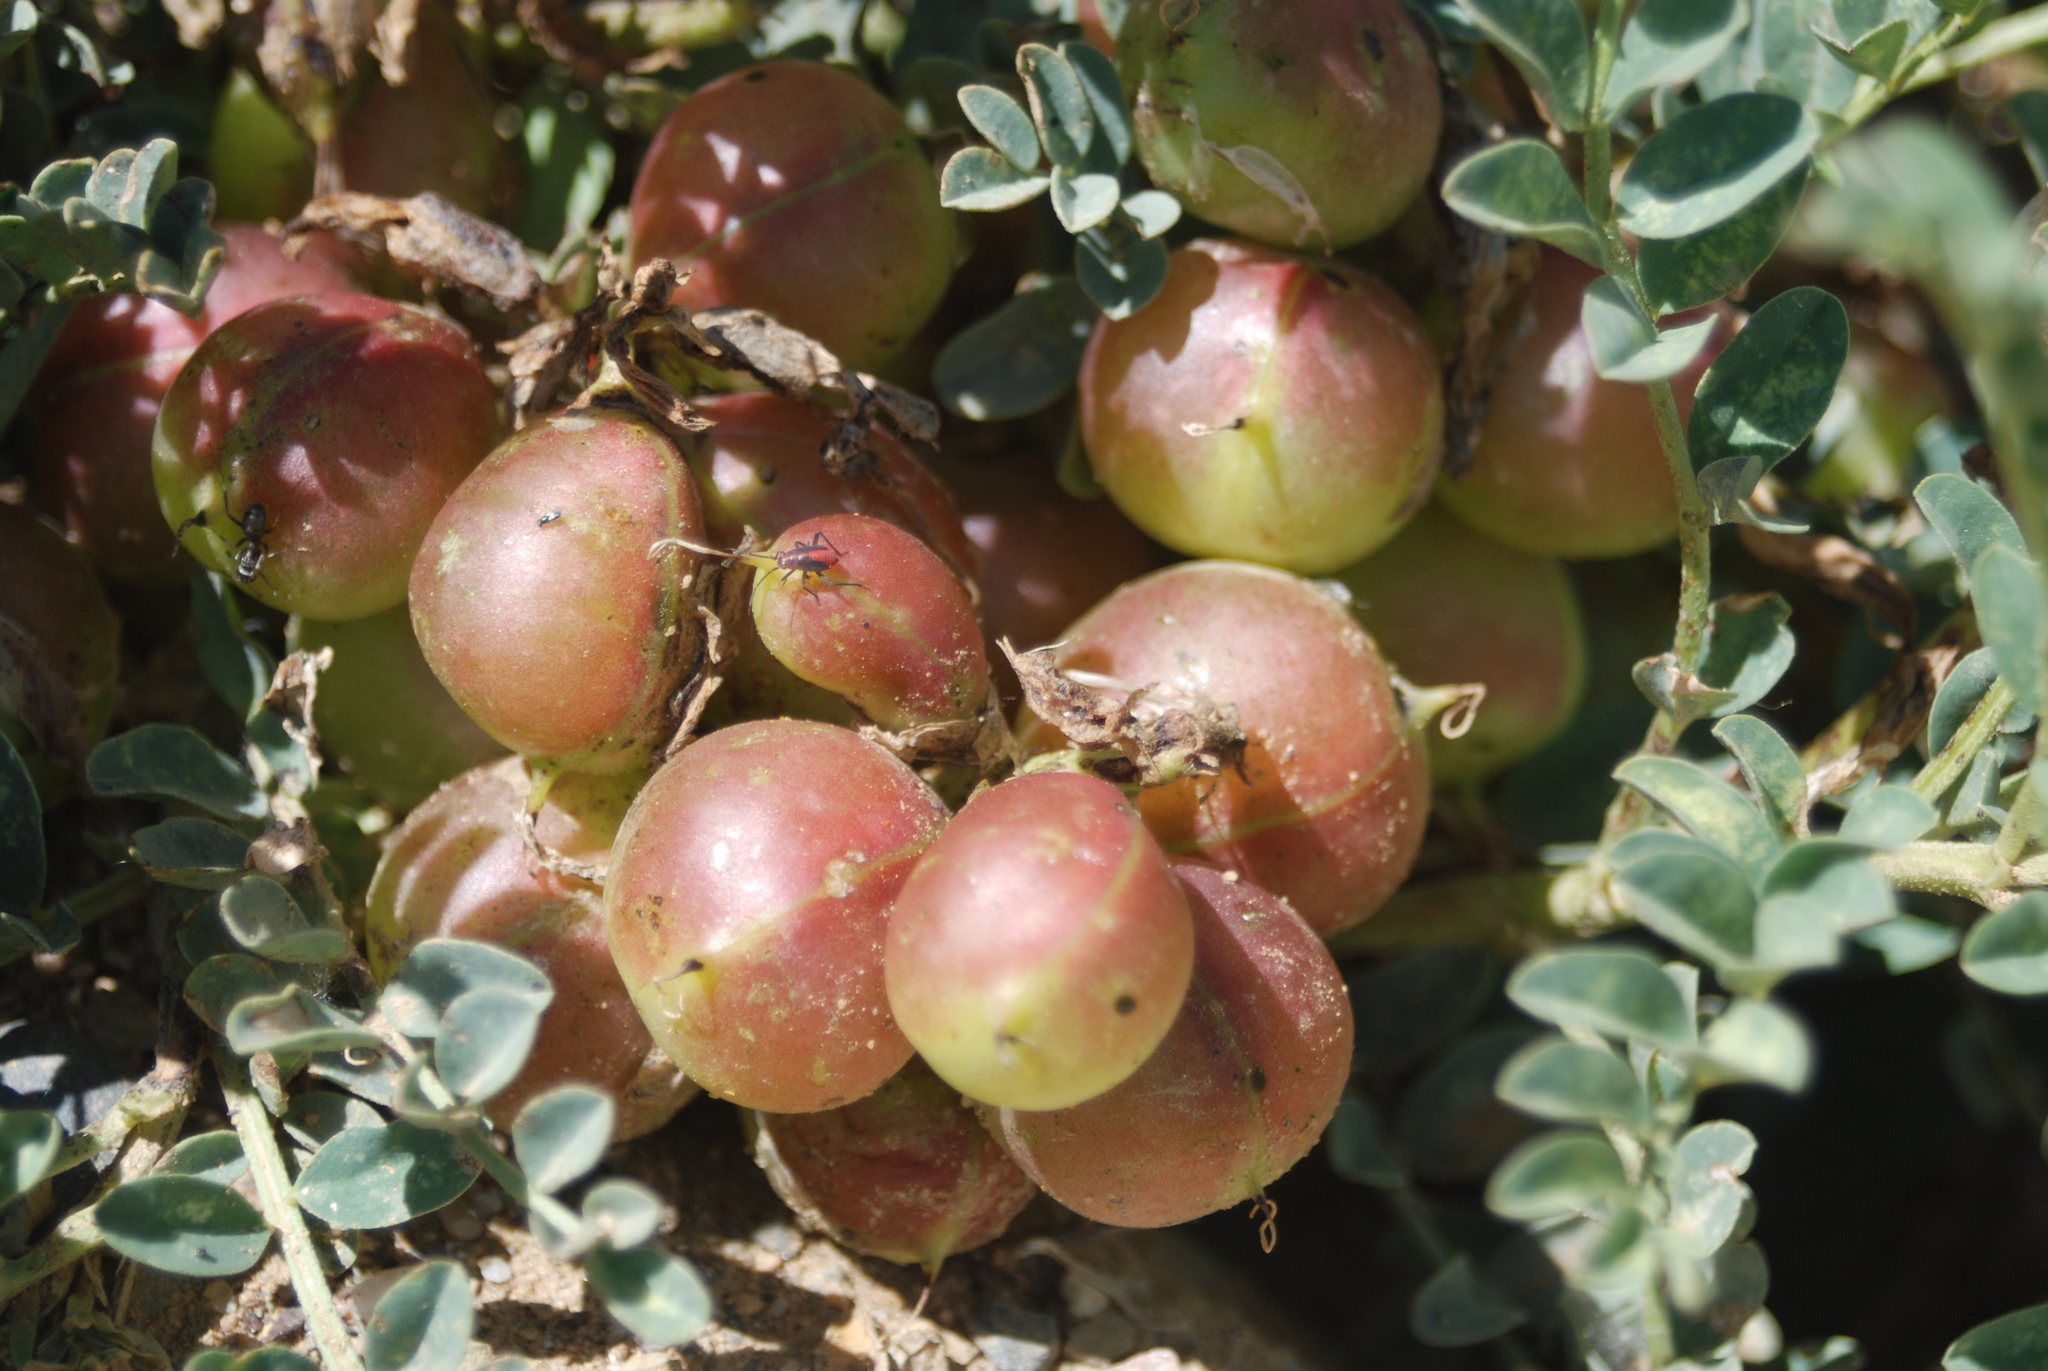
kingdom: Plantae
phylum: Tracheophyta
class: Magnoliopsida
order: Fabales
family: Fabaceae
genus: Astragalus
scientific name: Astragalus crassicarpus
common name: Ground-plum milk-vetch
